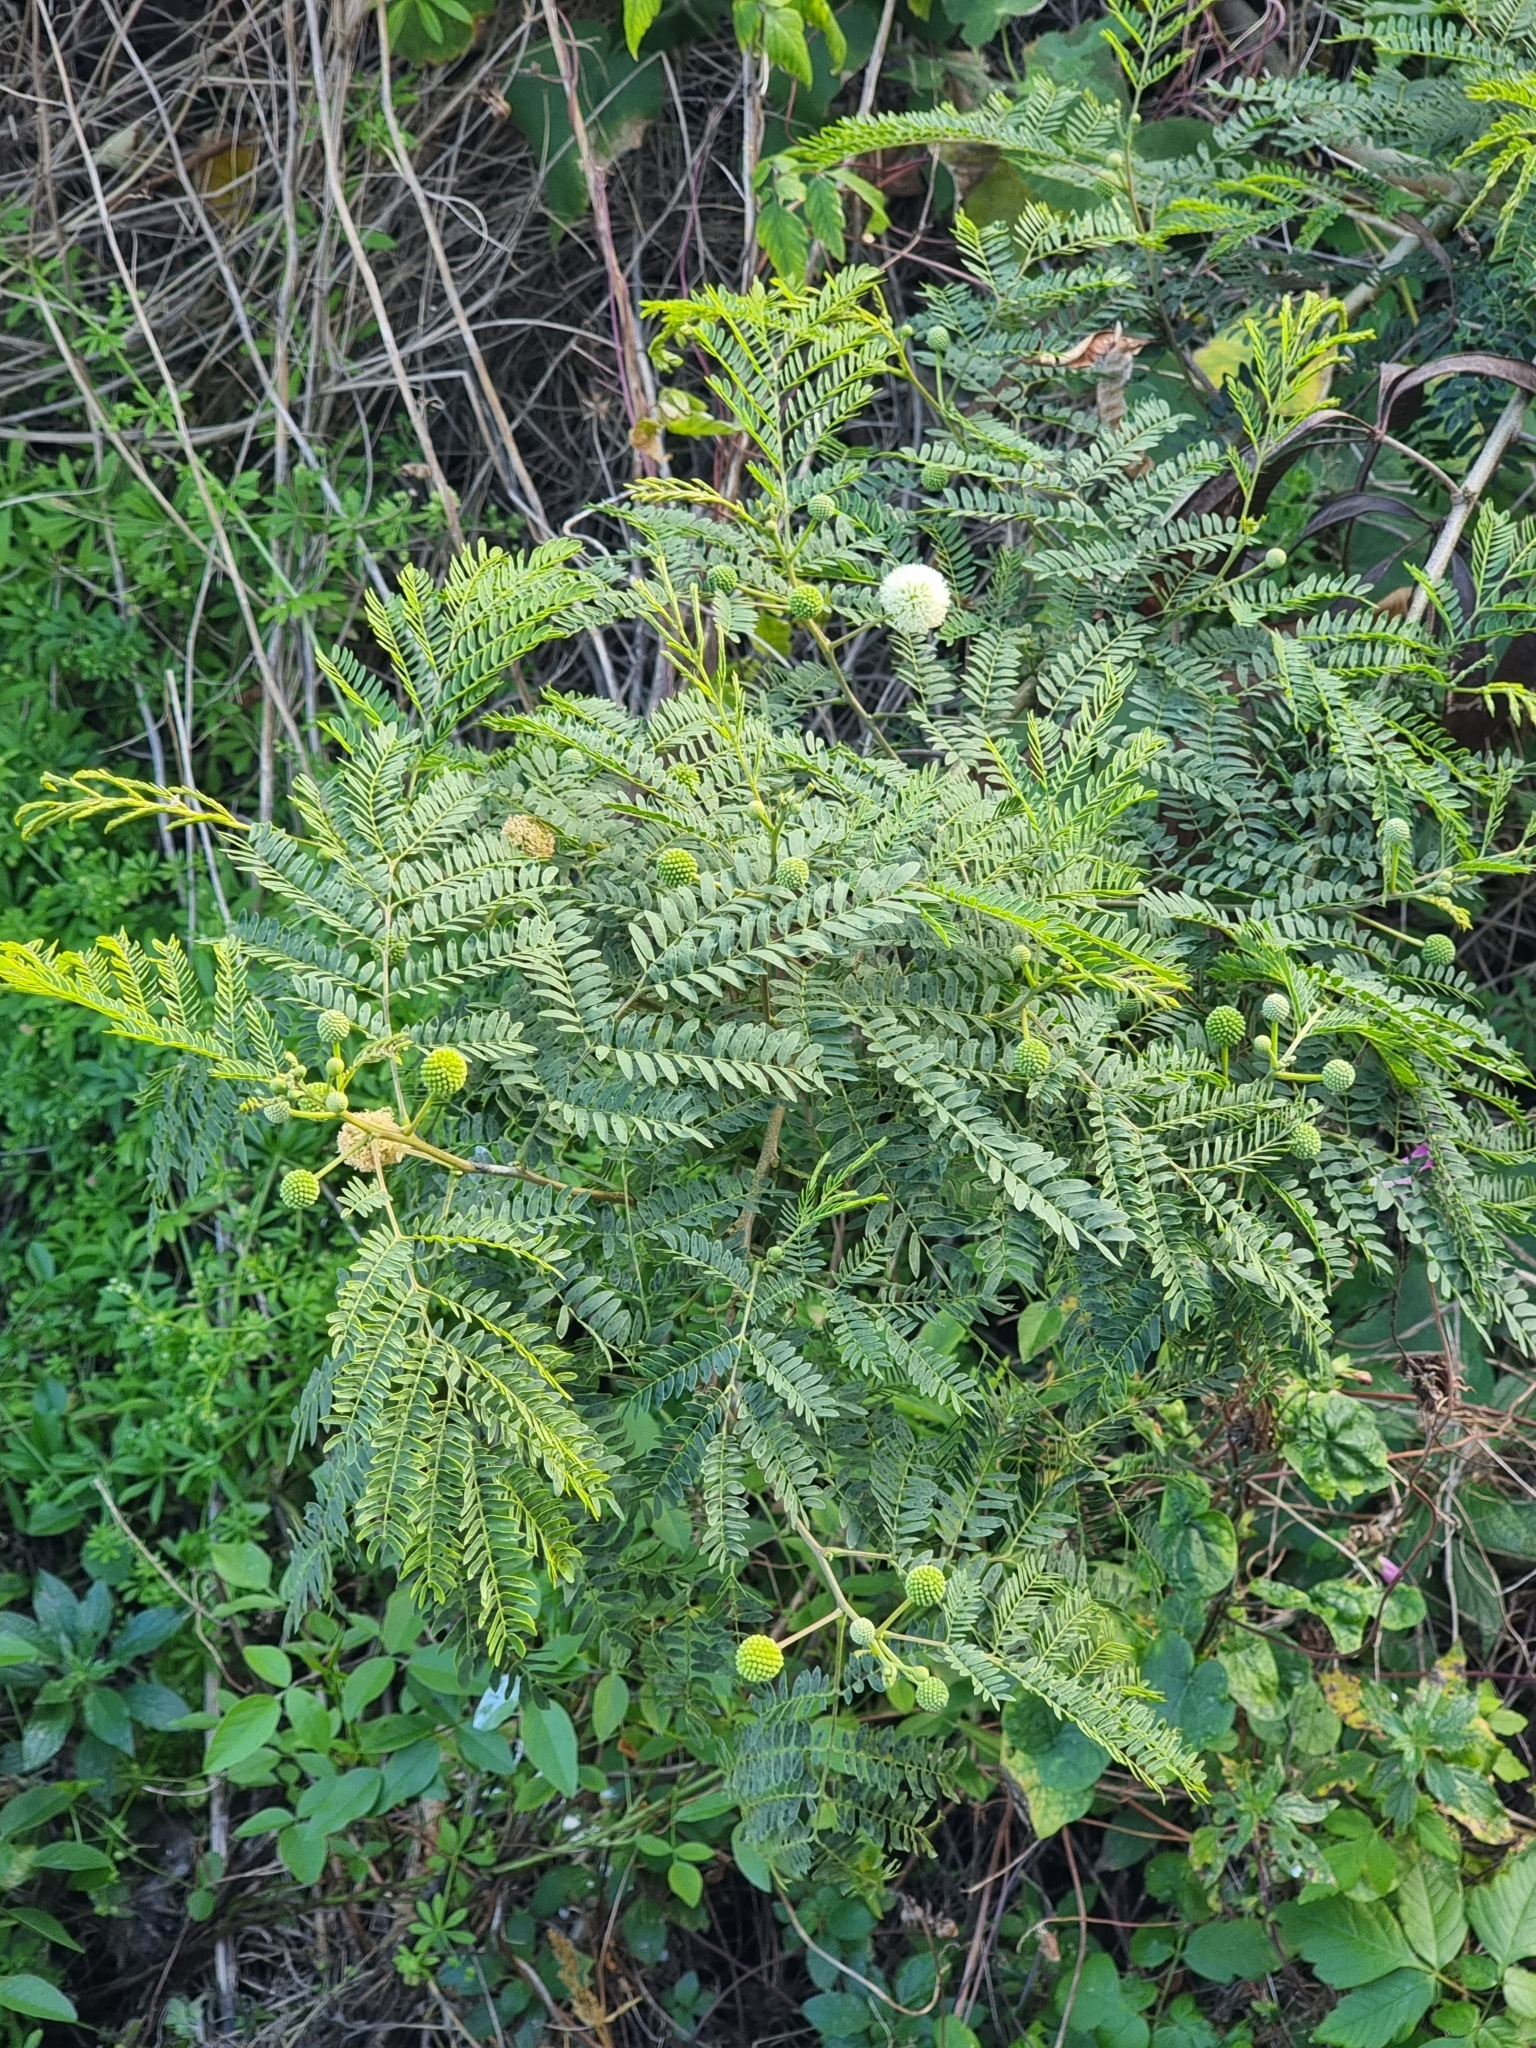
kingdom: Plantae
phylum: Tracheophyta
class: Magnoliopsida
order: Fabales
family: Fabaceae
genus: Leucaena
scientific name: Leucaena leucocephala
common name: White leadtree
